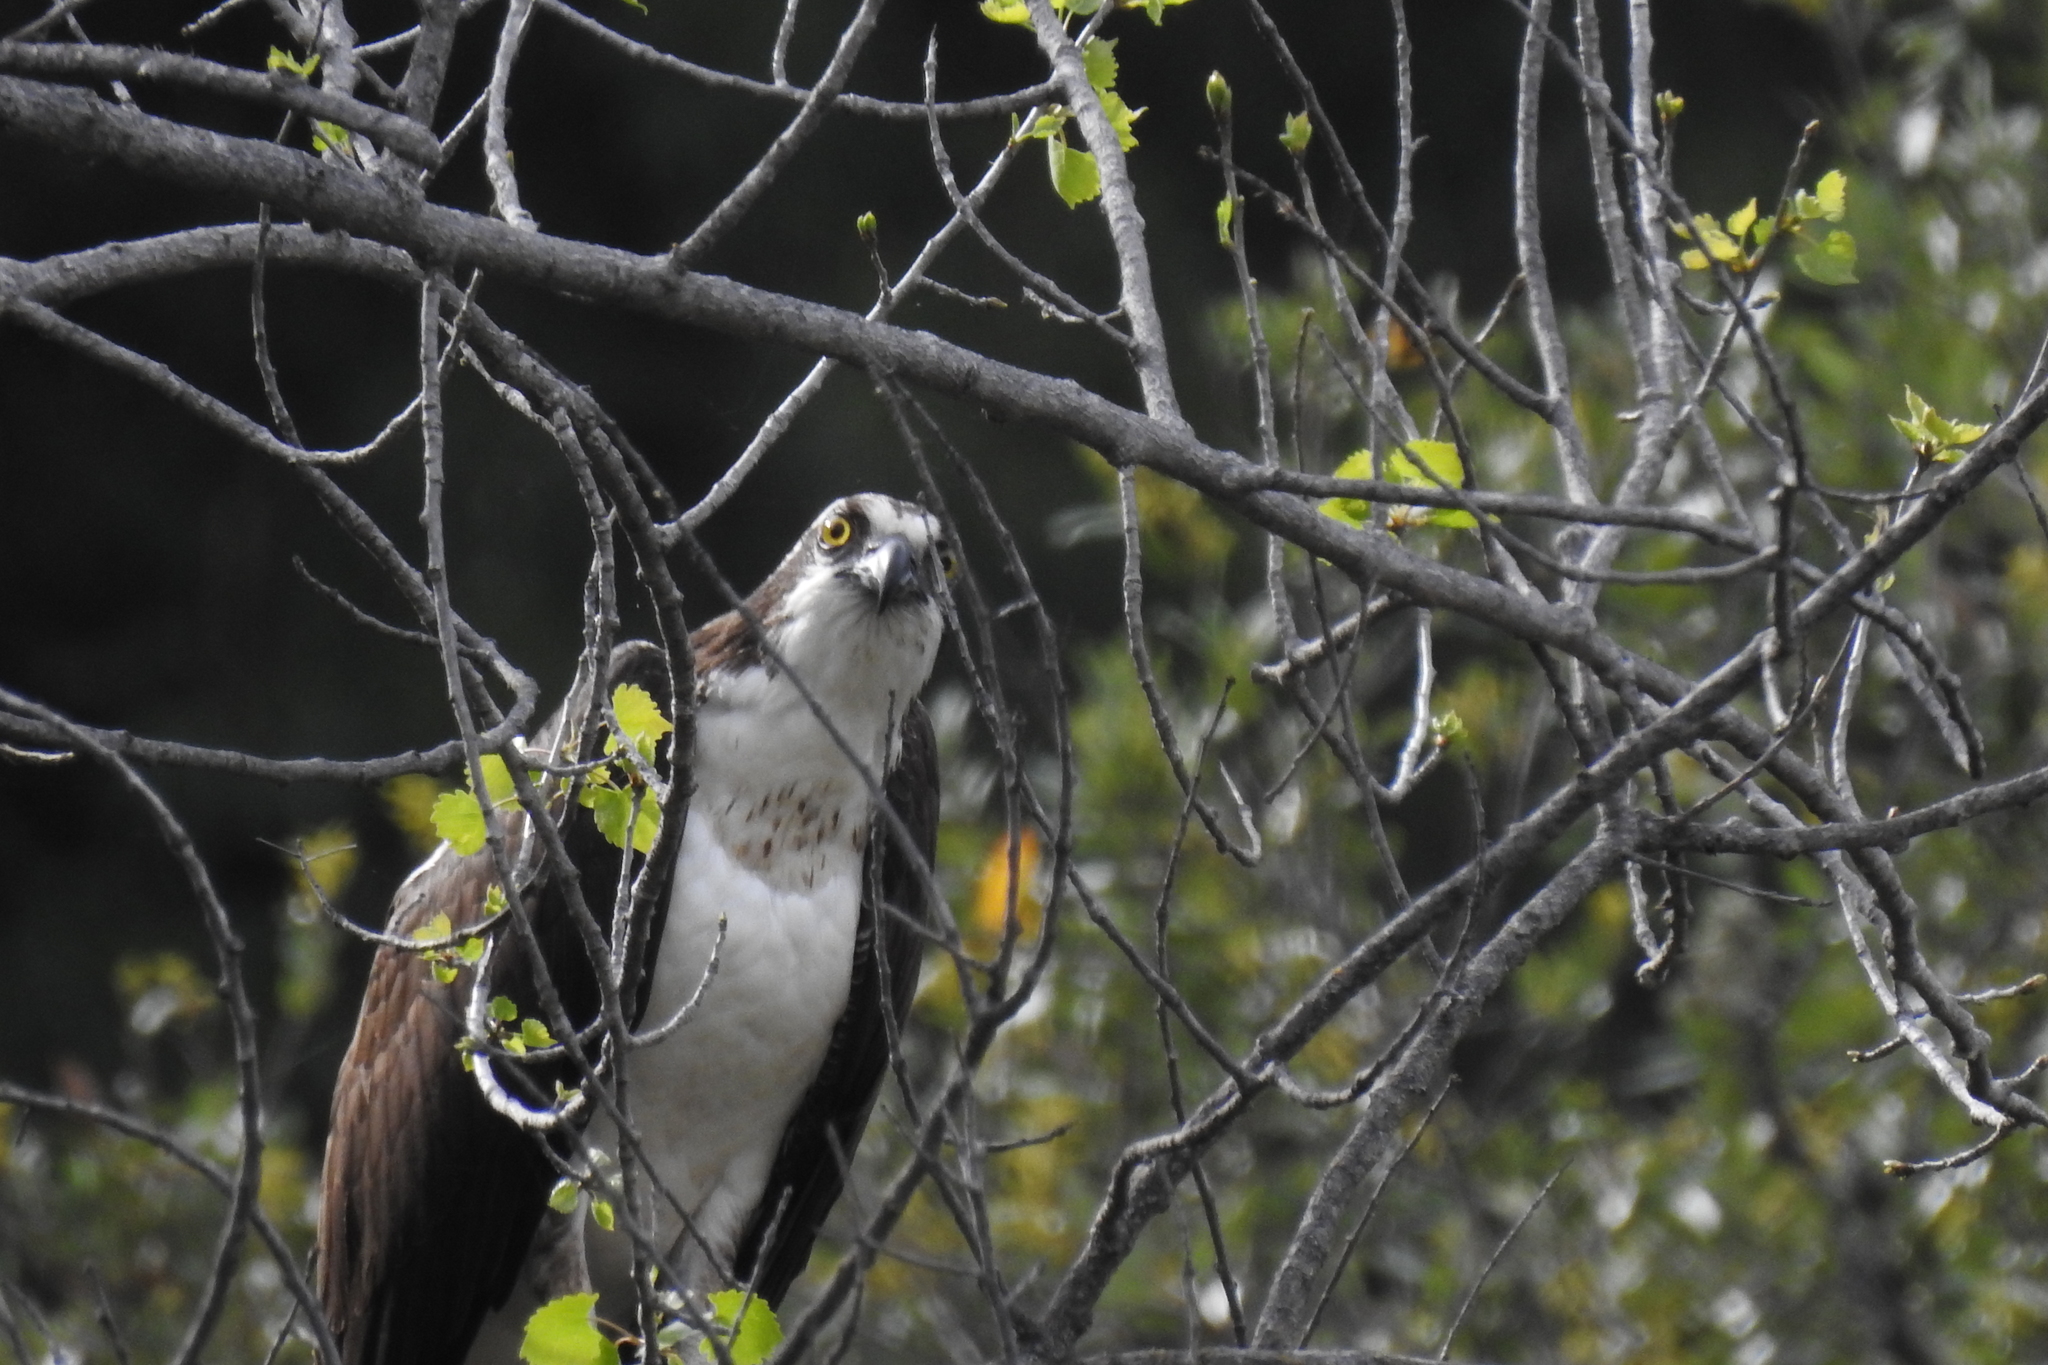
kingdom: Animalia
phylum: Chordata
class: Aves
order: Accipitriformes
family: Pandionidae
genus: Pandion
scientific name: Pandion haliaetus
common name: Osprey
